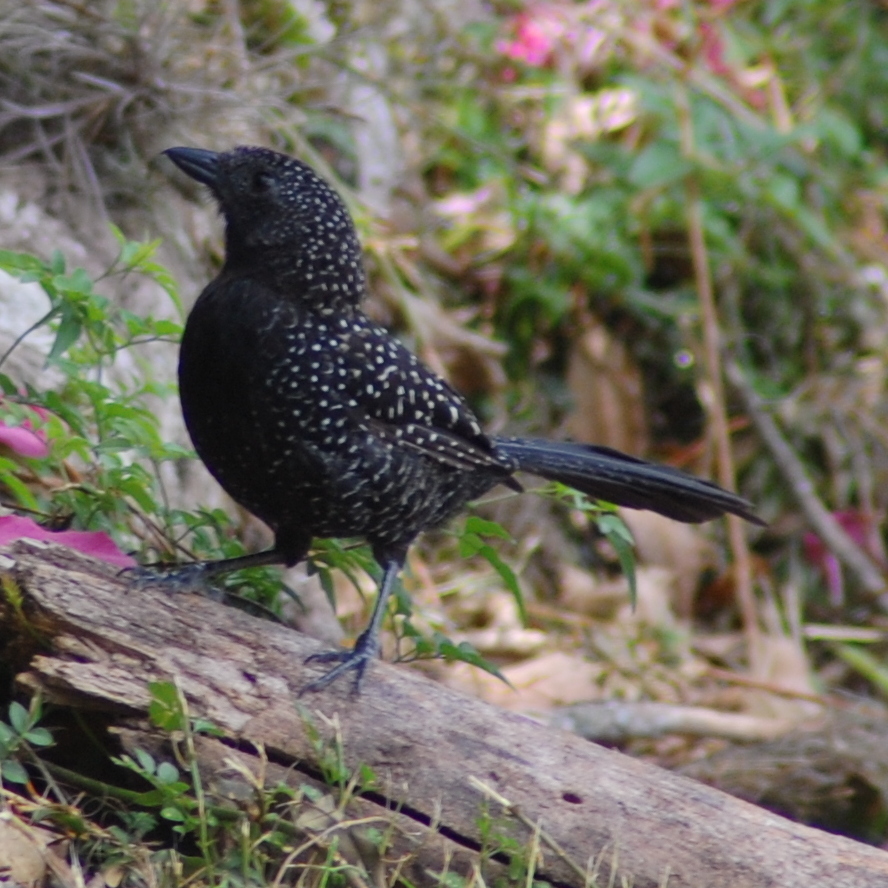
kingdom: Animalia
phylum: Chordata
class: Aves
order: Passeriformes
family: Thamnophilidae
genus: Mackenziaena
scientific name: Mackenziaena leachii
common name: Large-tailed antshrike
